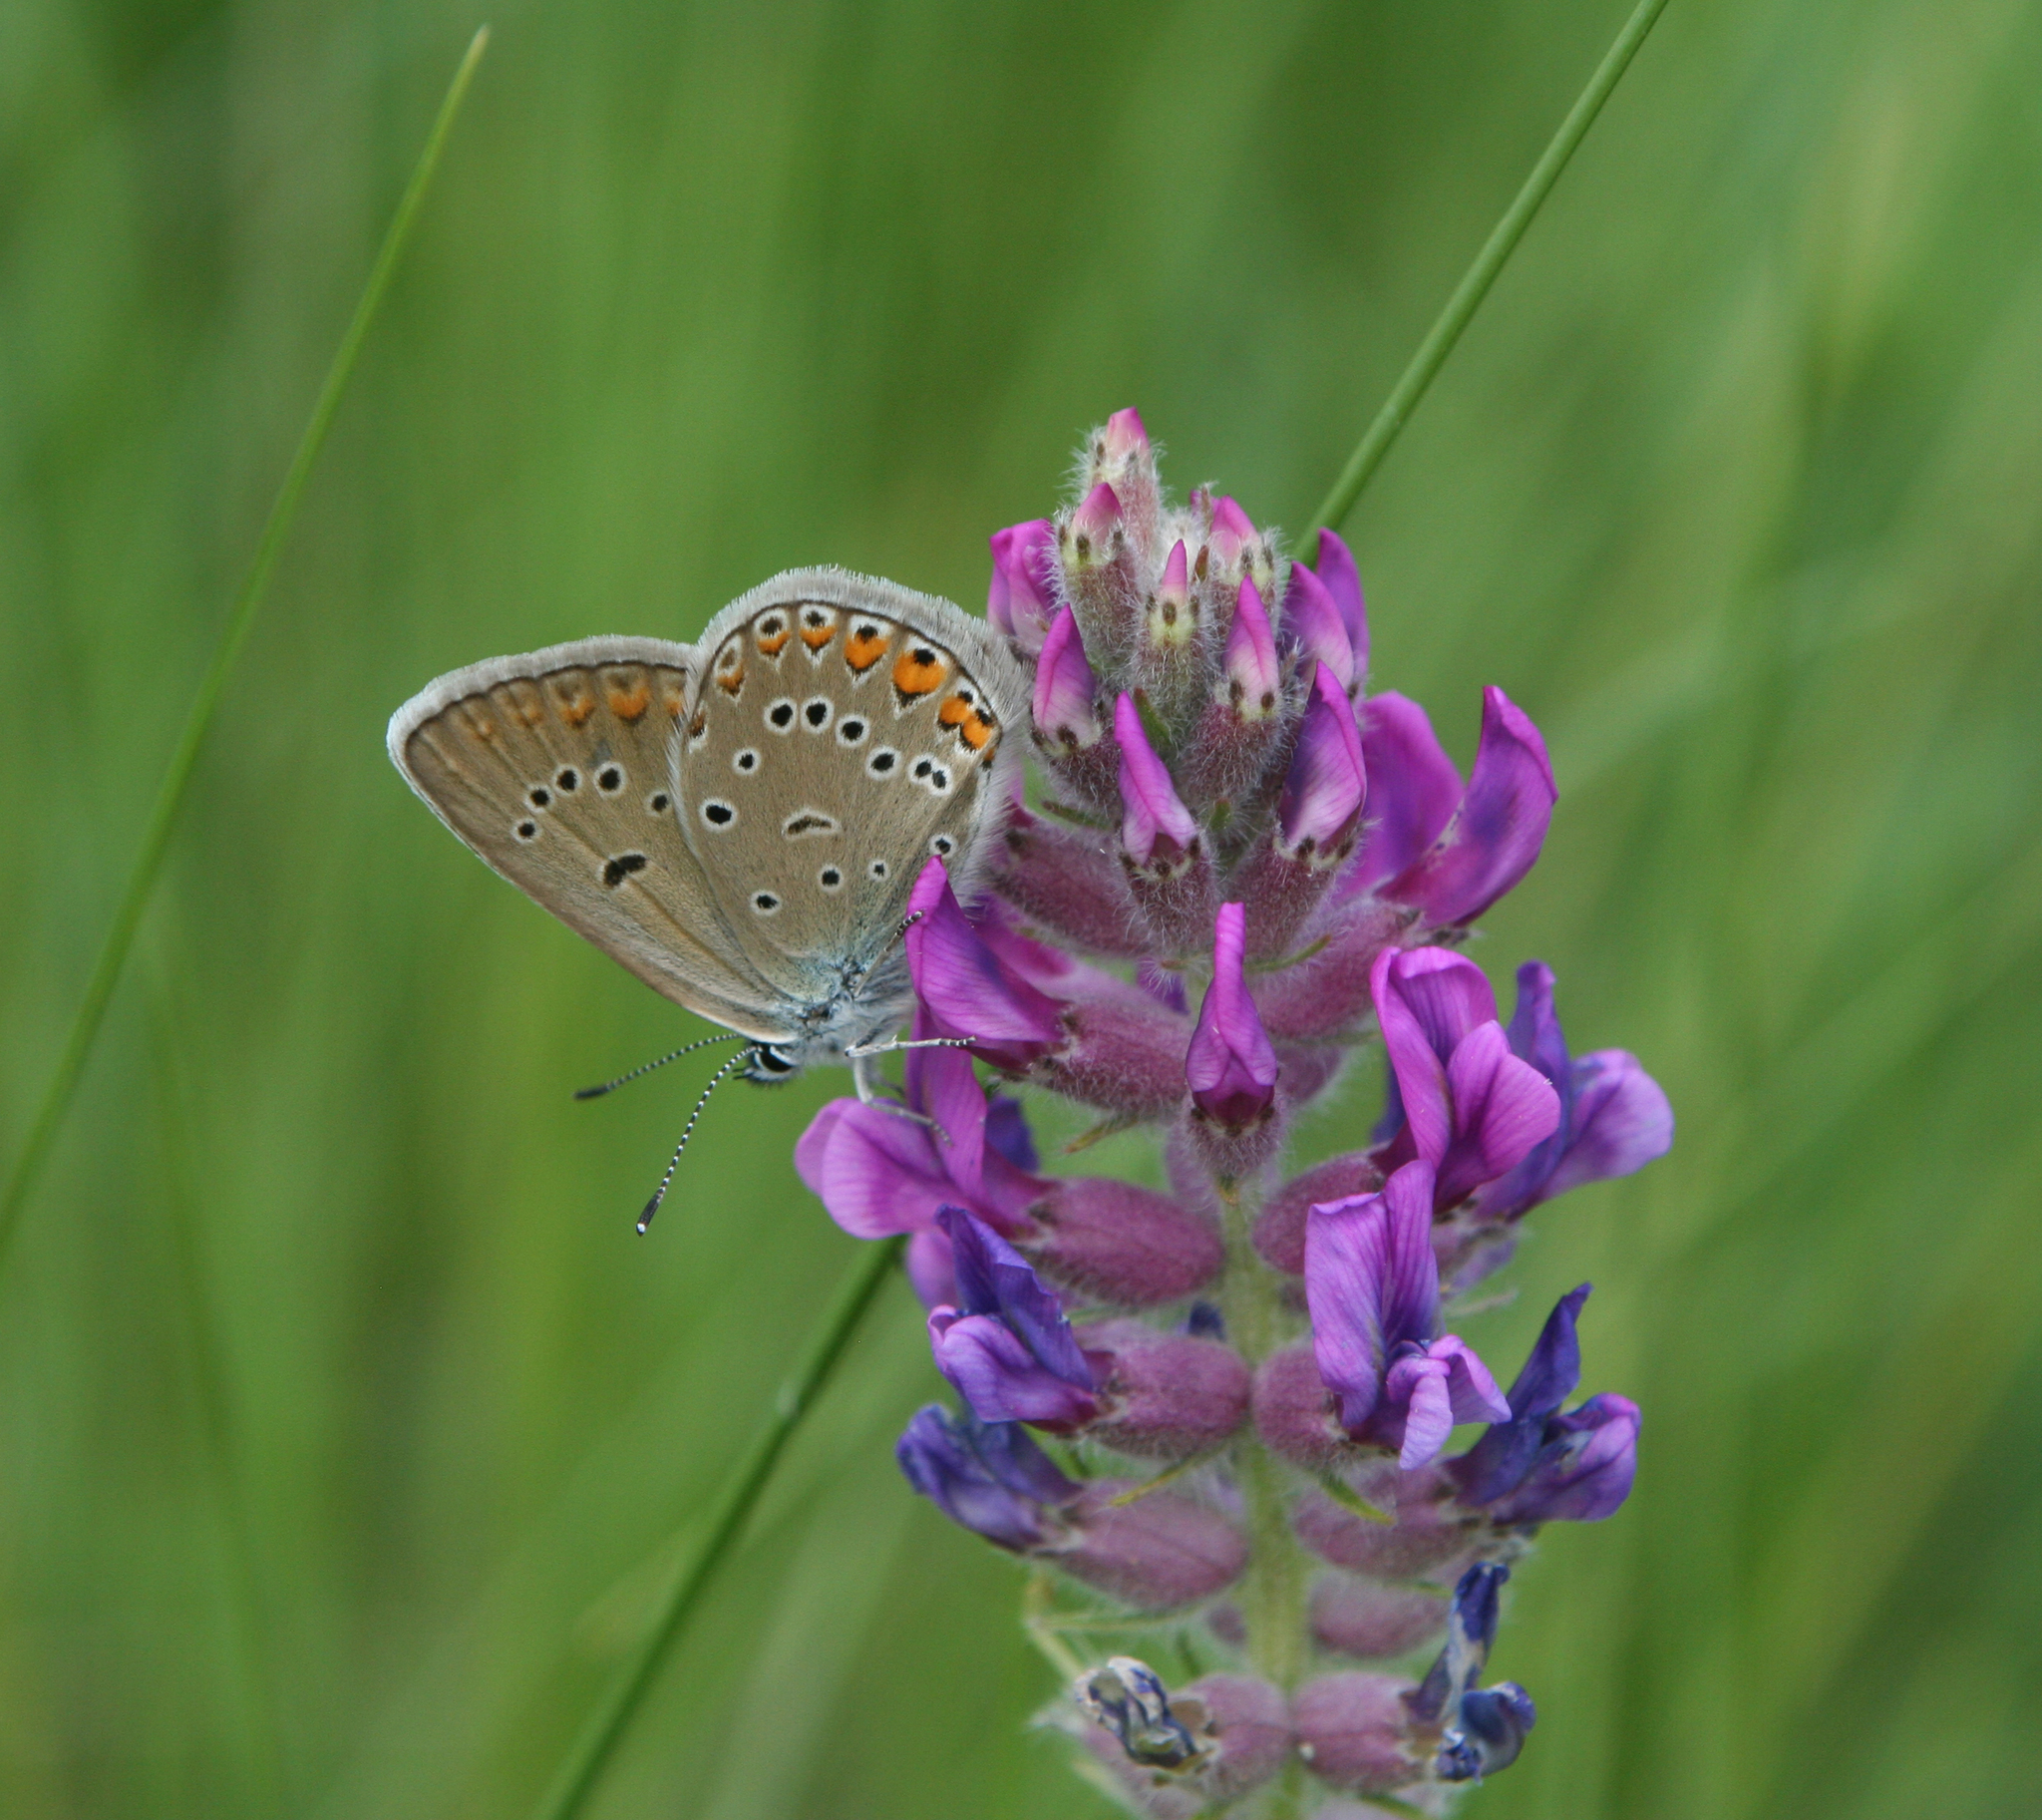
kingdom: Plantae
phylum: Tracheophyta
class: Magnoliopsida
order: Fabales
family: Fabaceae
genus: Oxytropis
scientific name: Oxytropis campanulata
